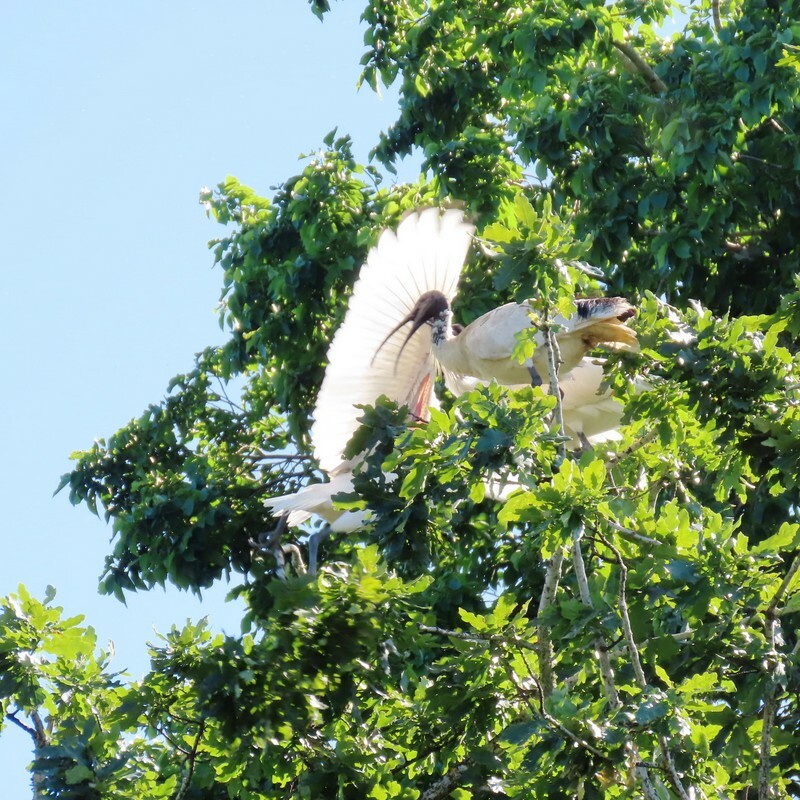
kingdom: Animalia
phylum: Chordata
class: Aves
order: Pelecaniformes
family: Threskiornithidae
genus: Threskiornis
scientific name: Threskiornis molucca
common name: Australian white ibis
